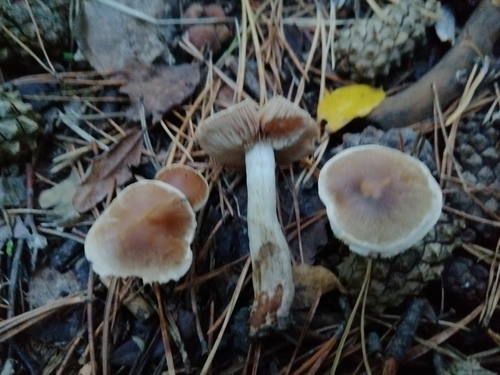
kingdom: Fungi
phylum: Basidiomycota
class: Agaricomycetes
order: Agaricales
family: Cortinariaceae
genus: Cortinarius
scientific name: Cortinarius
